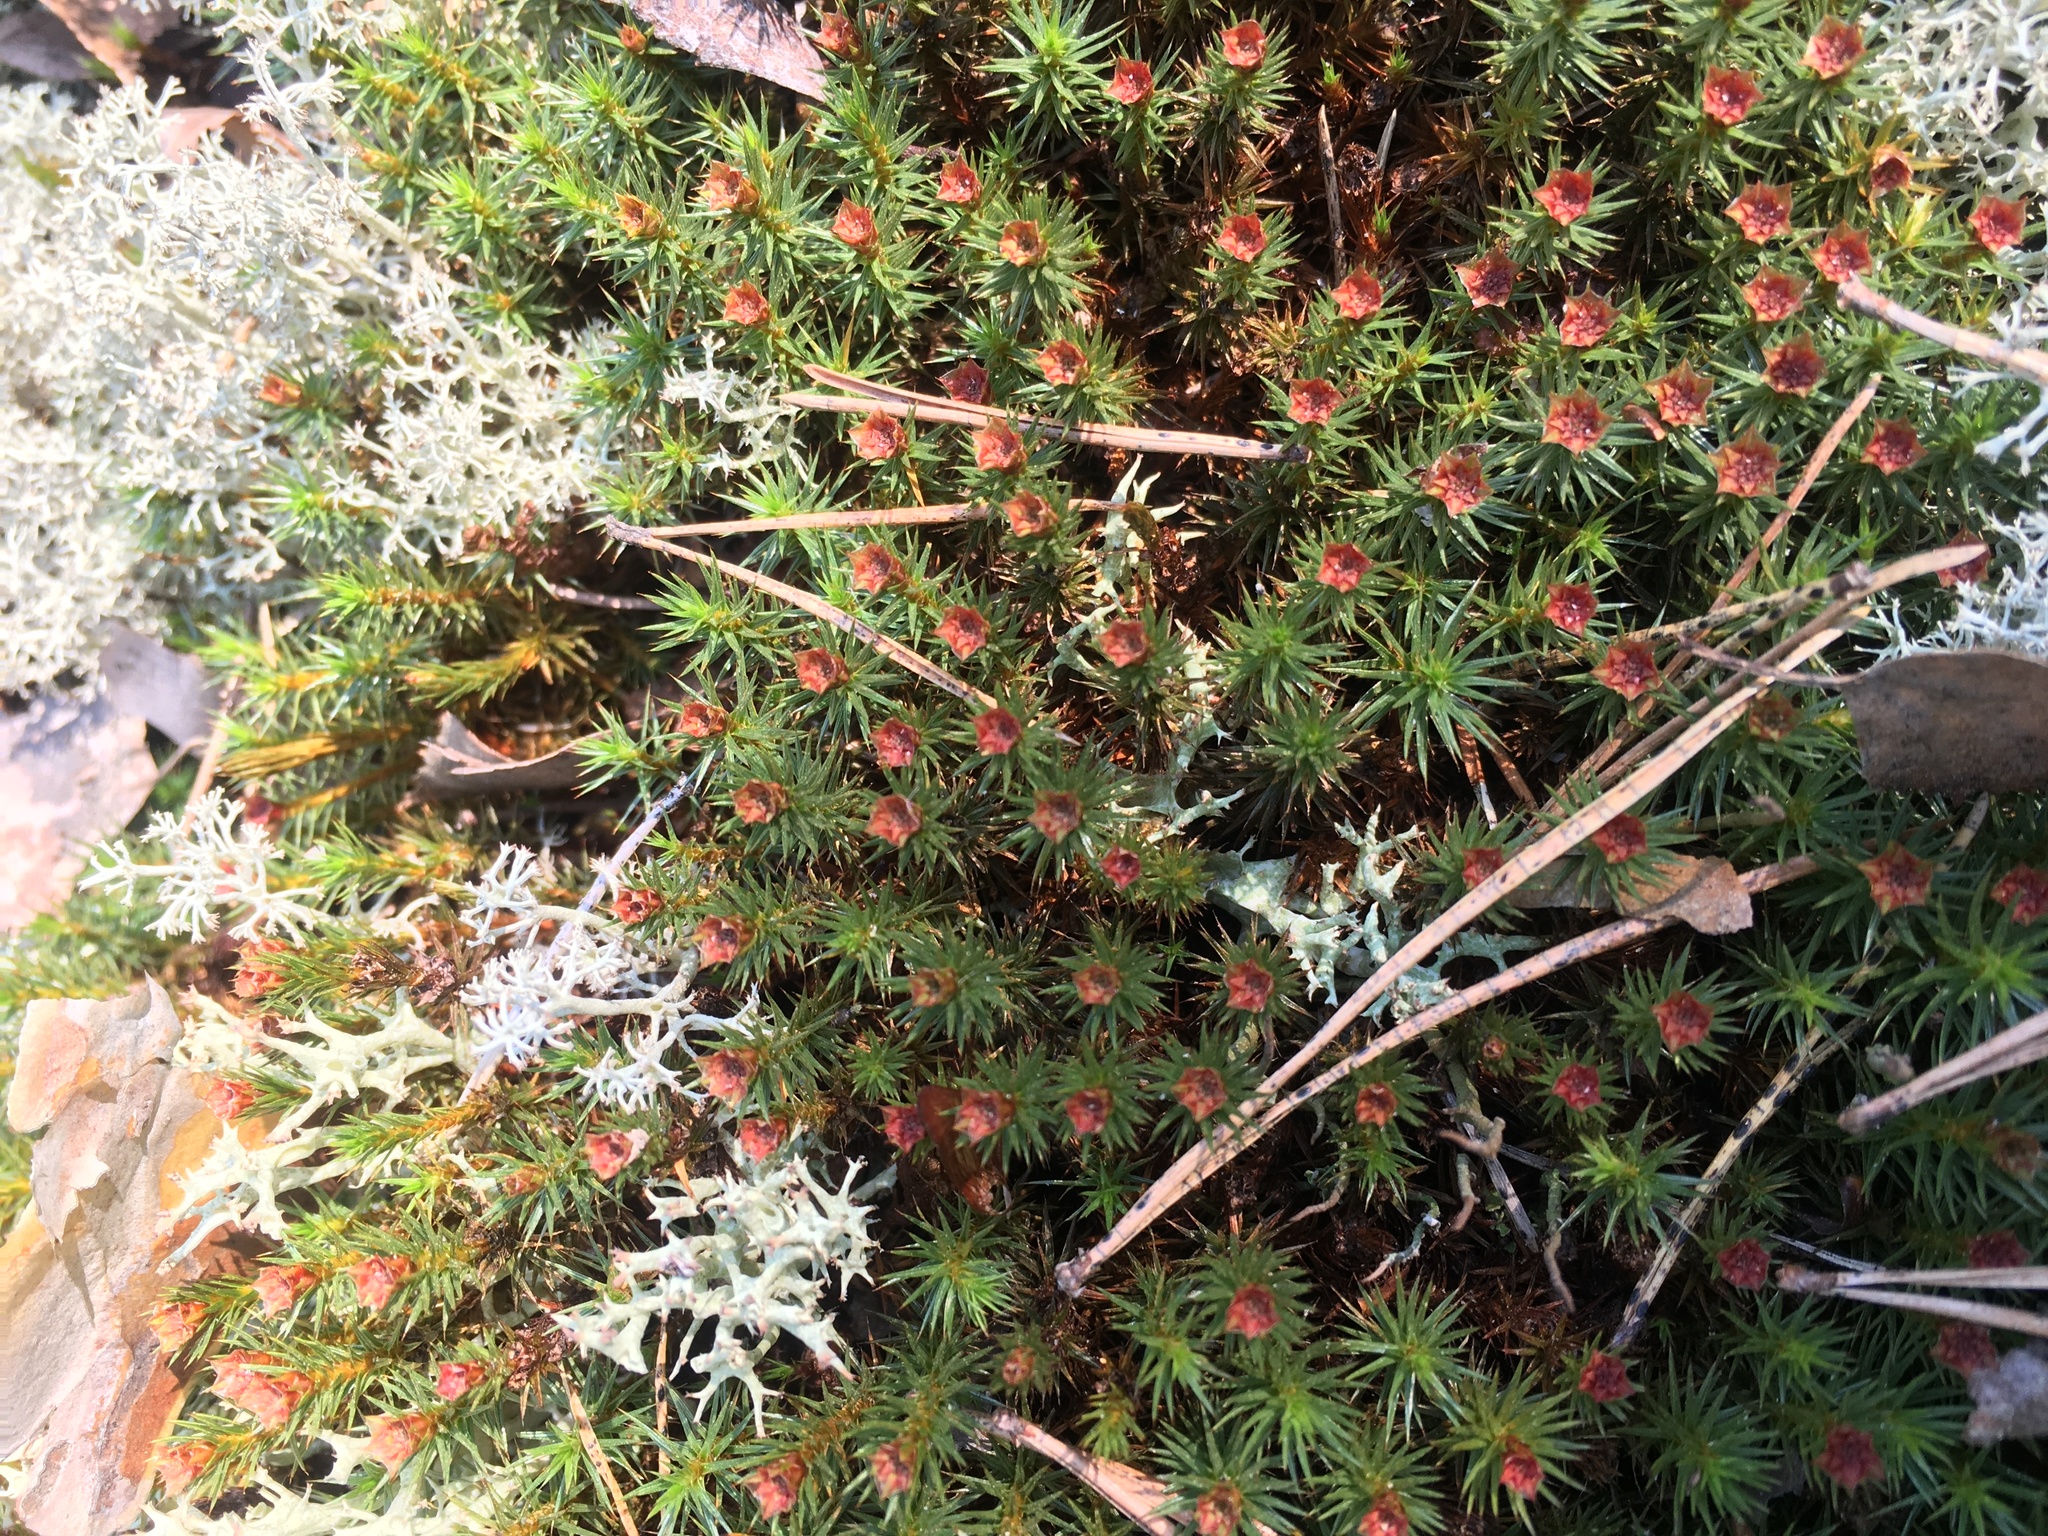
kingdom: Plantae
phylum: Bryophyta
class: Polytrichopsida
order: Polytrichales
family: Polytrichaceae
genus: Polytrichum
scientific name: Polytrichum juniperinum
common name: Juniper haircap moss
